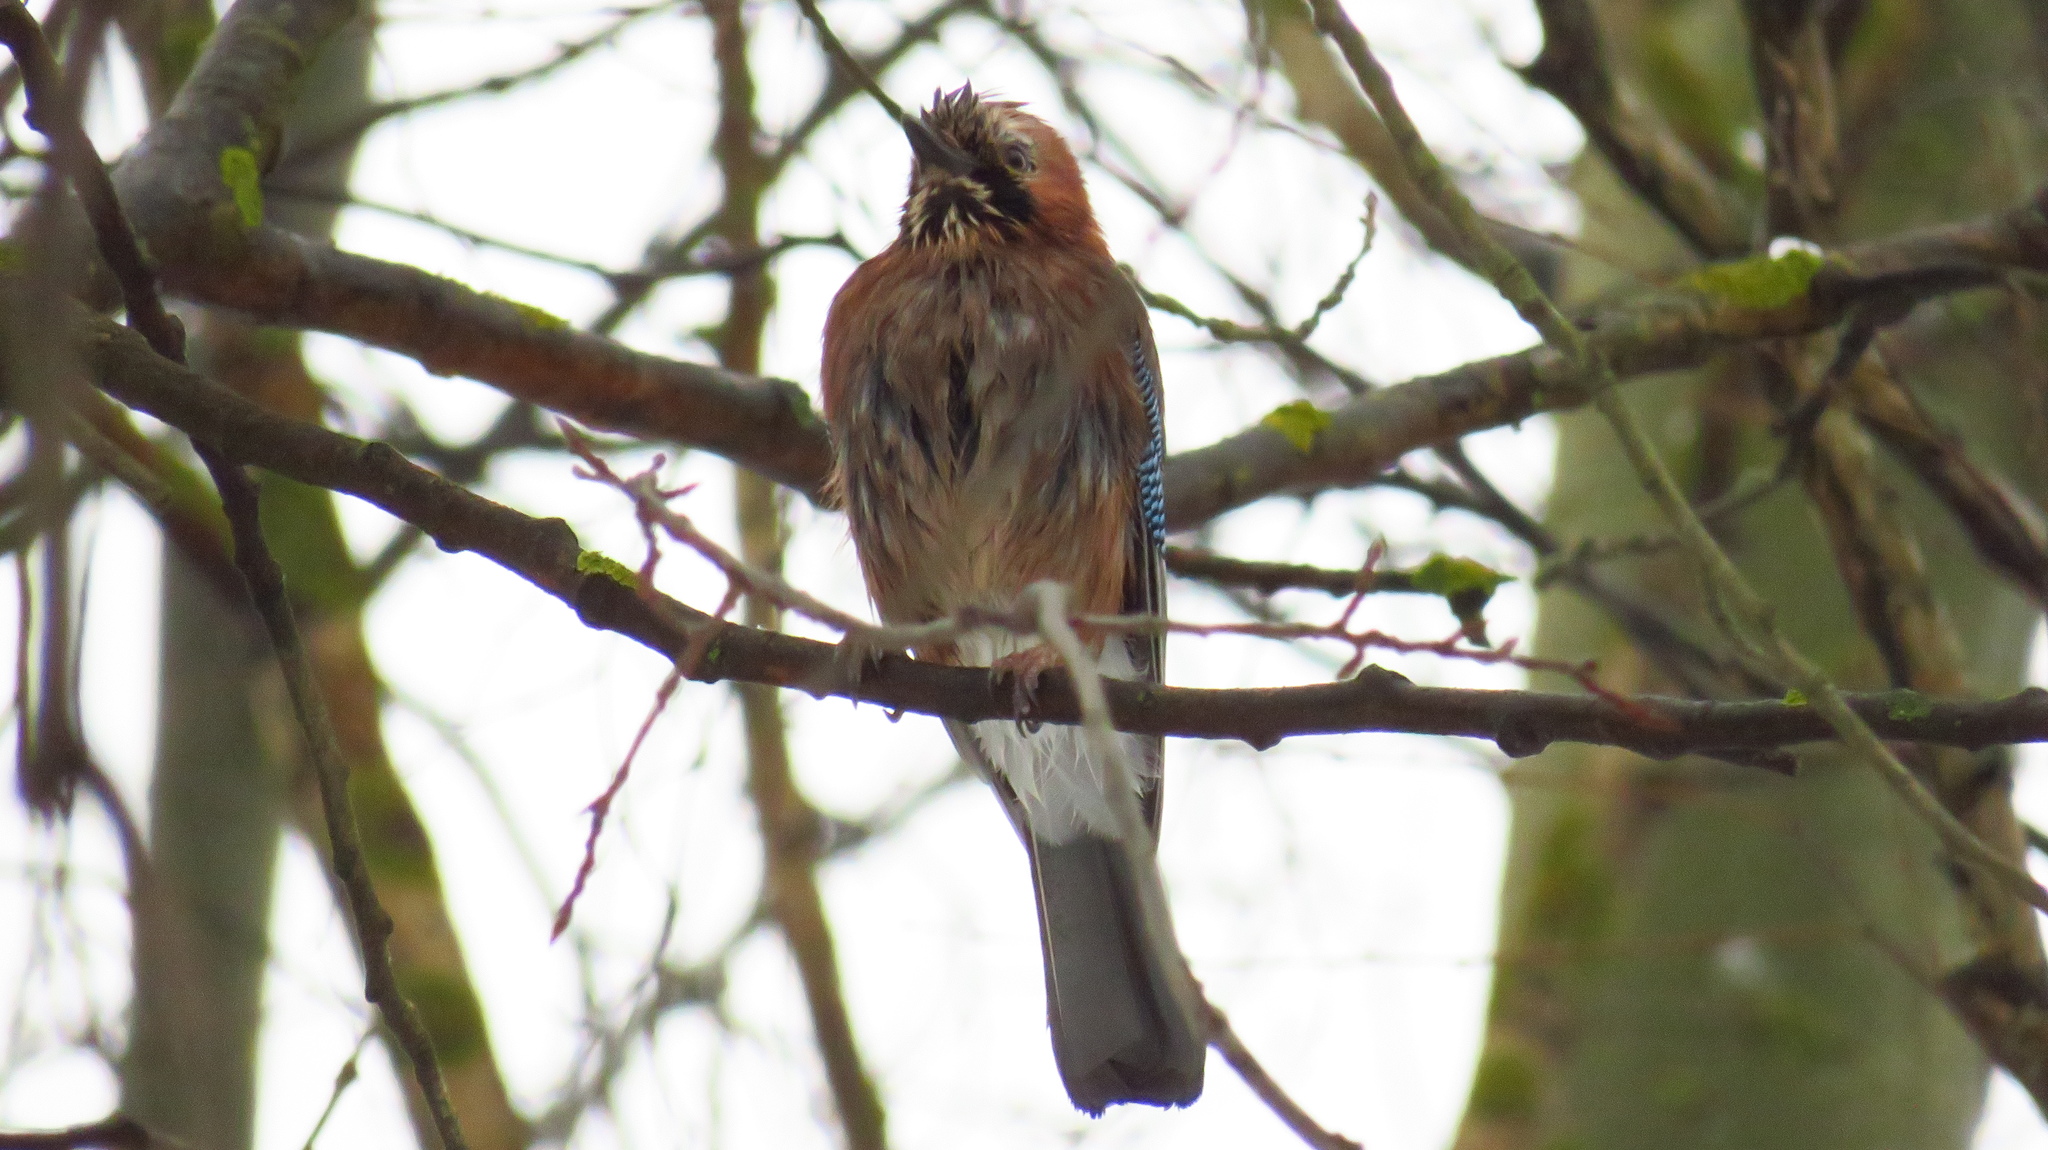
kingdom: Animalia
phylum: Chordata
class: Aves
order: Passeriformes
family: Corvidae
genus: Garrulus
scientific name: Garrulus glandarius
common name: Eurasian jay
